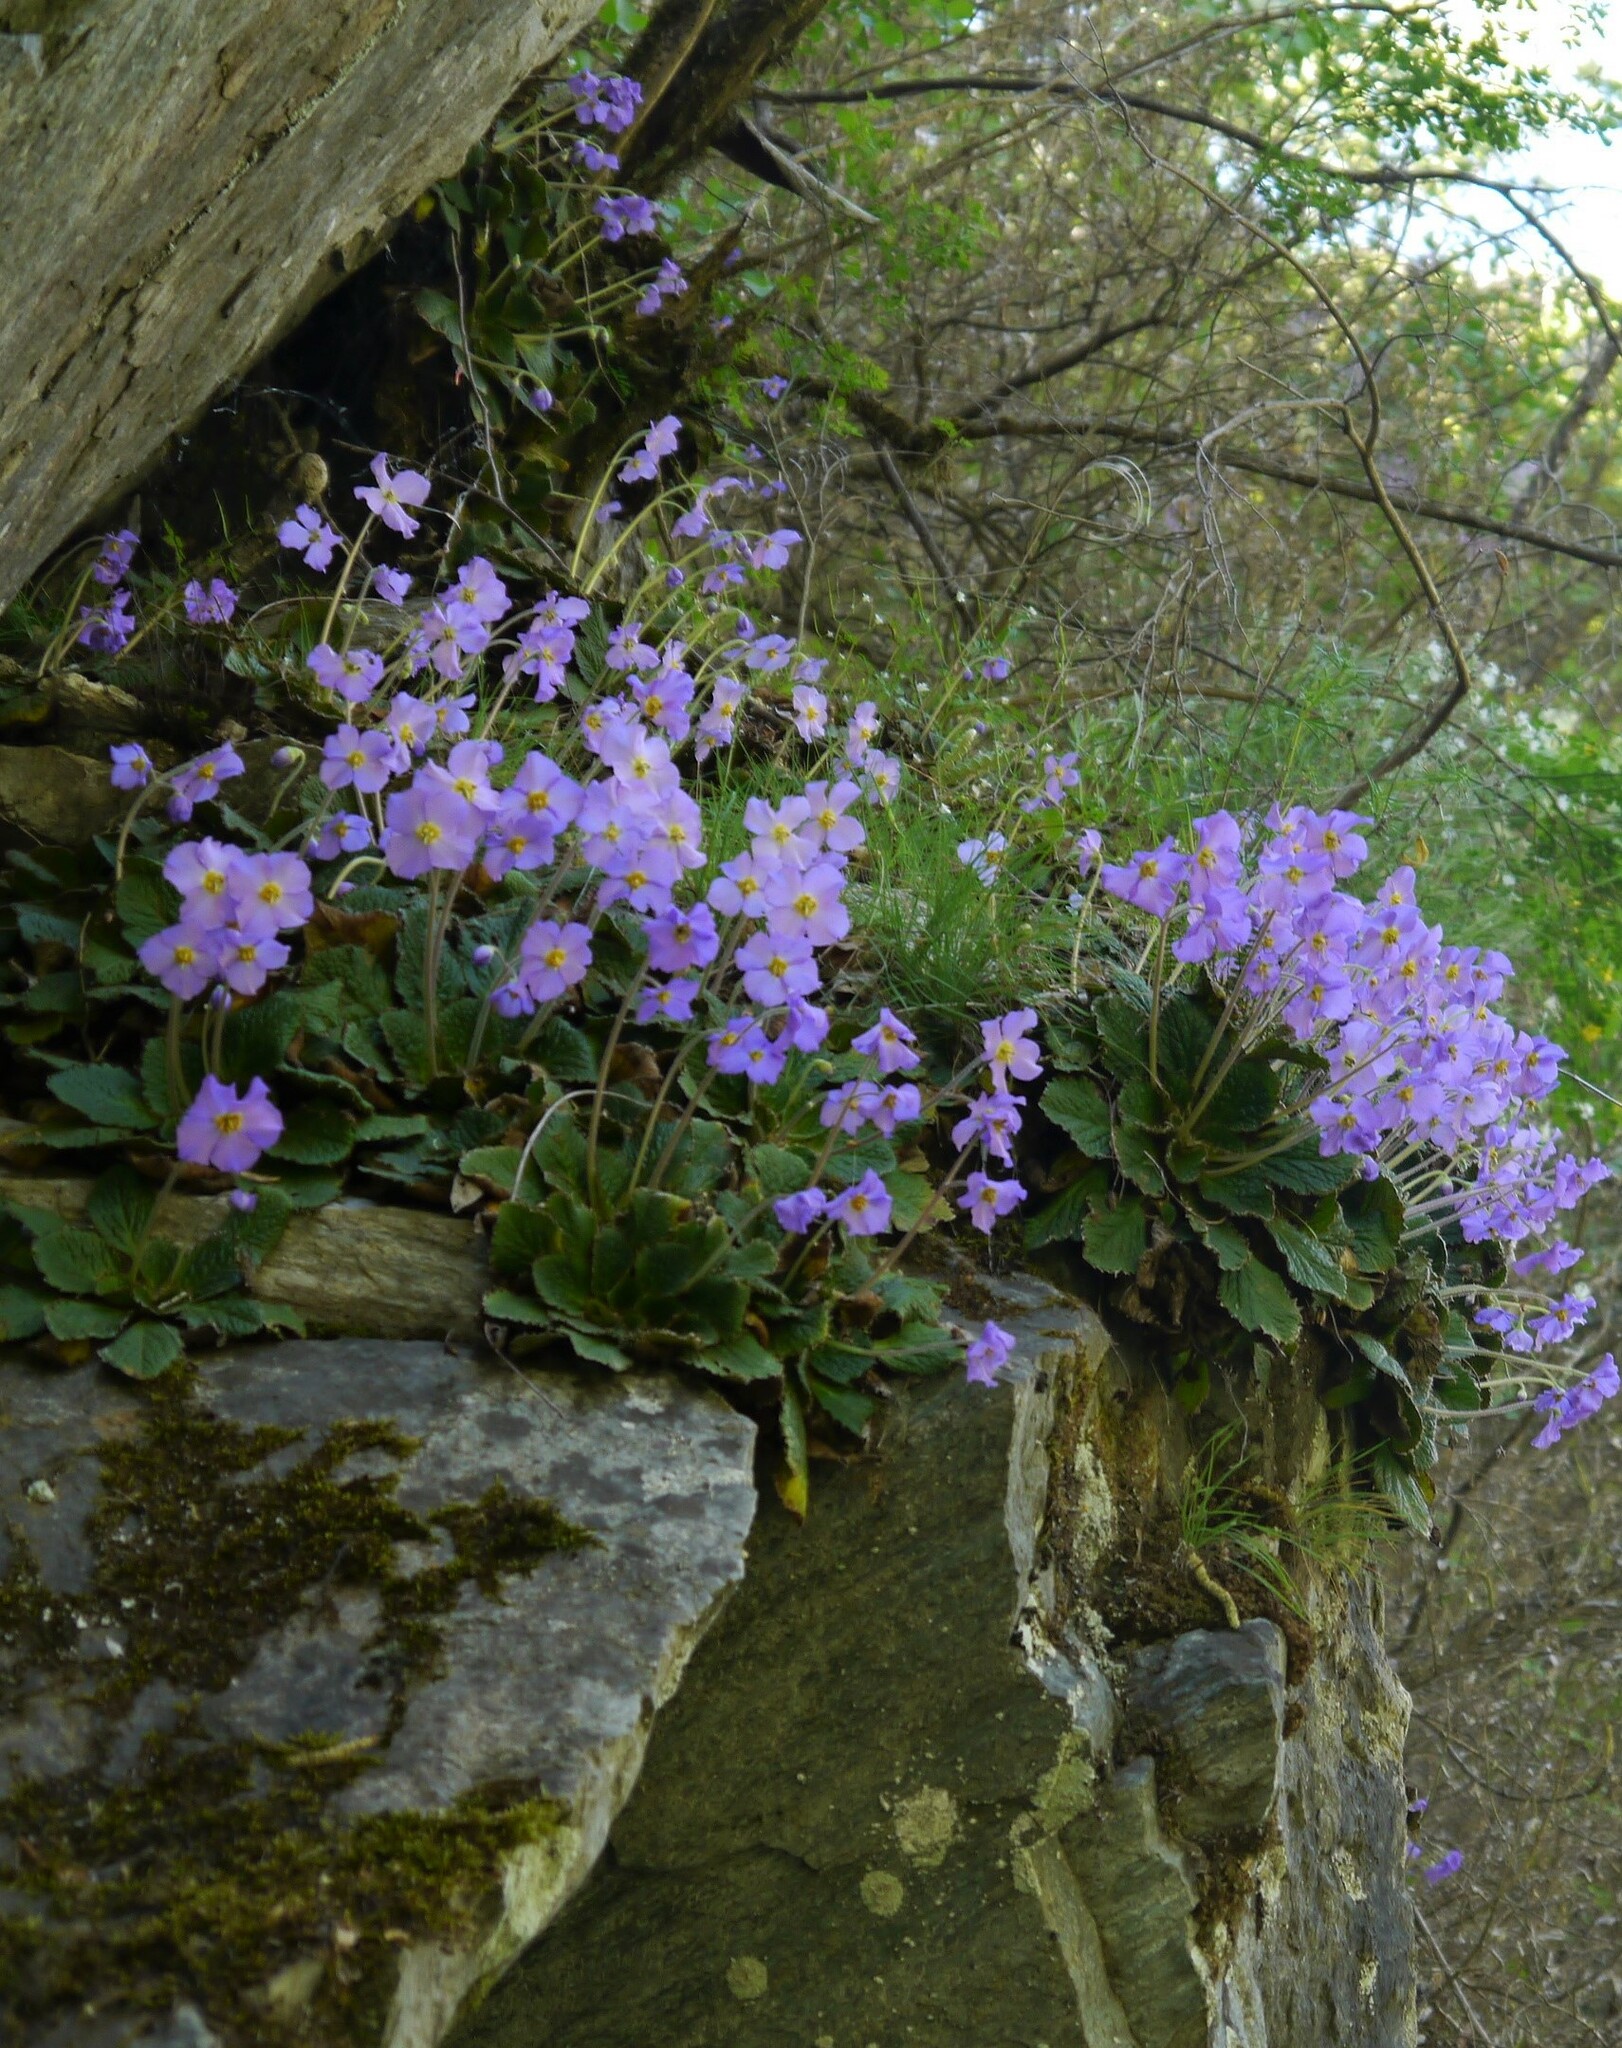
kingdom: Plantae
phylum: Tracheophyta
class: Magnoliopsida
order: Lamiales
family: Gesneriaceae
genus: Ramonda
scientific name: Ramonda nathaliae
